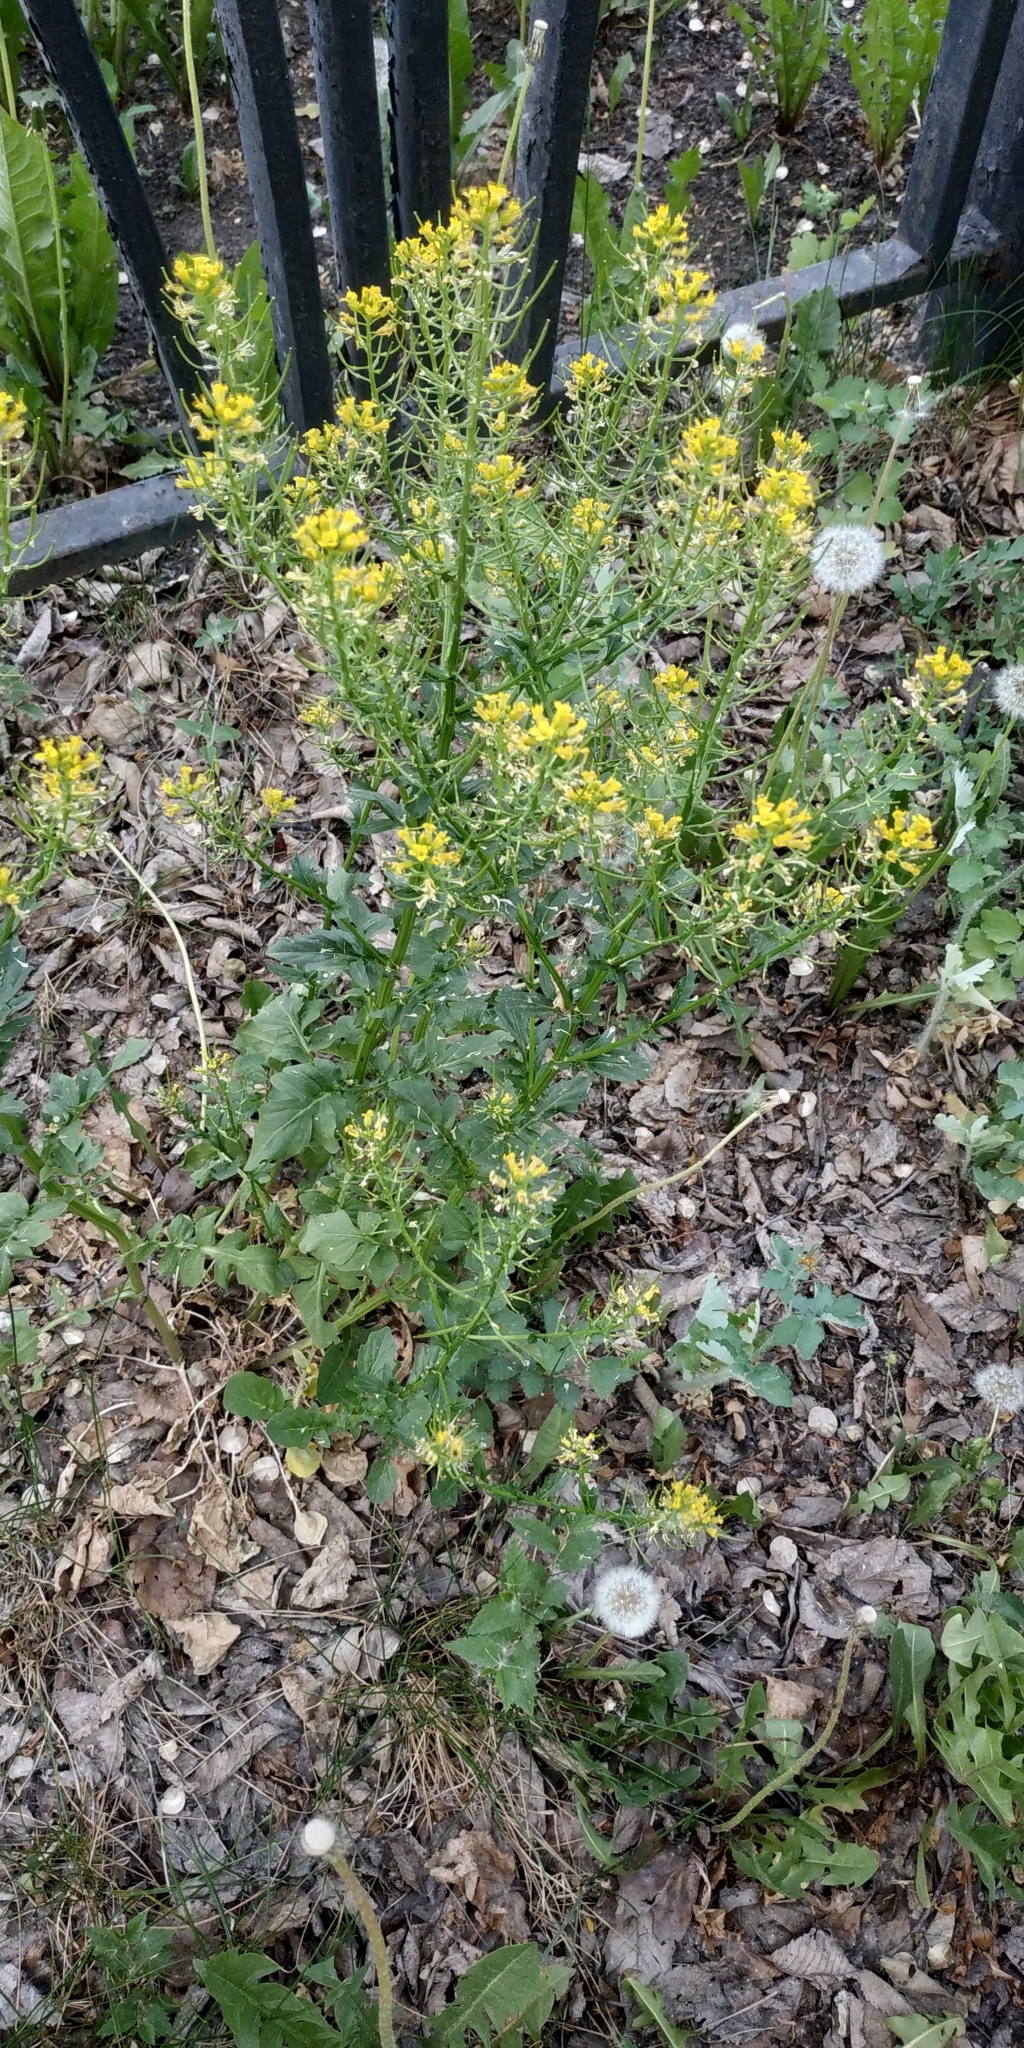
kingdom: Plantae
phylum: Tracheophyta
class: Magnoliopsida
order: Brassicales
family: Brassicaceae
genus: Barbarea
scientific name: Barbarea vulgaris
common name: Cressy-greens
